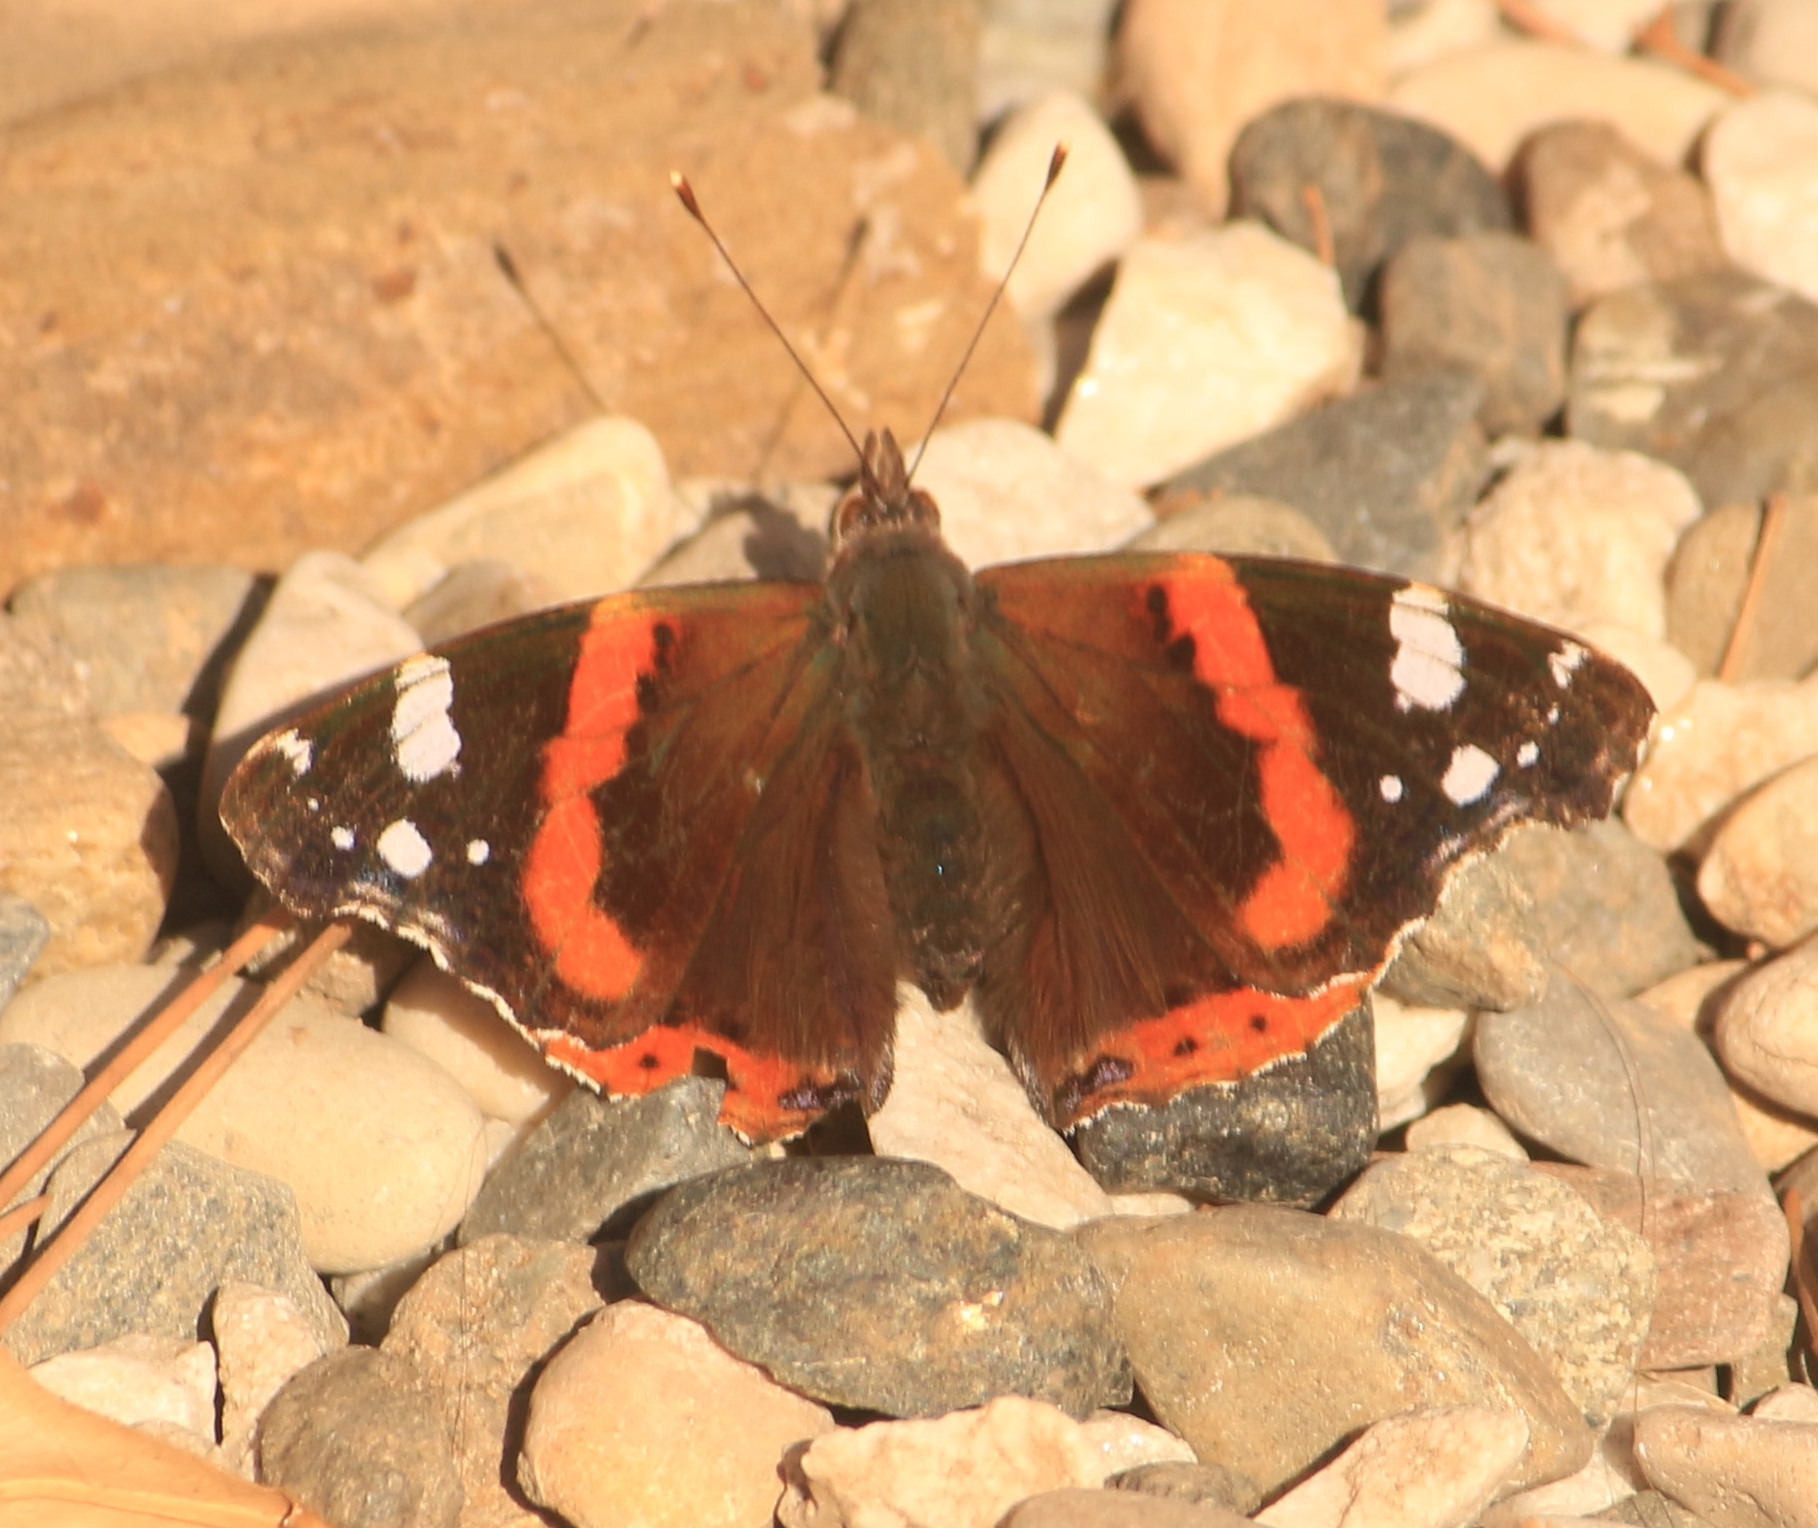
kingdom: Animalia
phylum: Arthropoda
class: Insecta
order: Lepidoptera
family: Nymphalidae
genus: Vanessa
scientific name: Vanessa atalanta
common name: Red admiral
